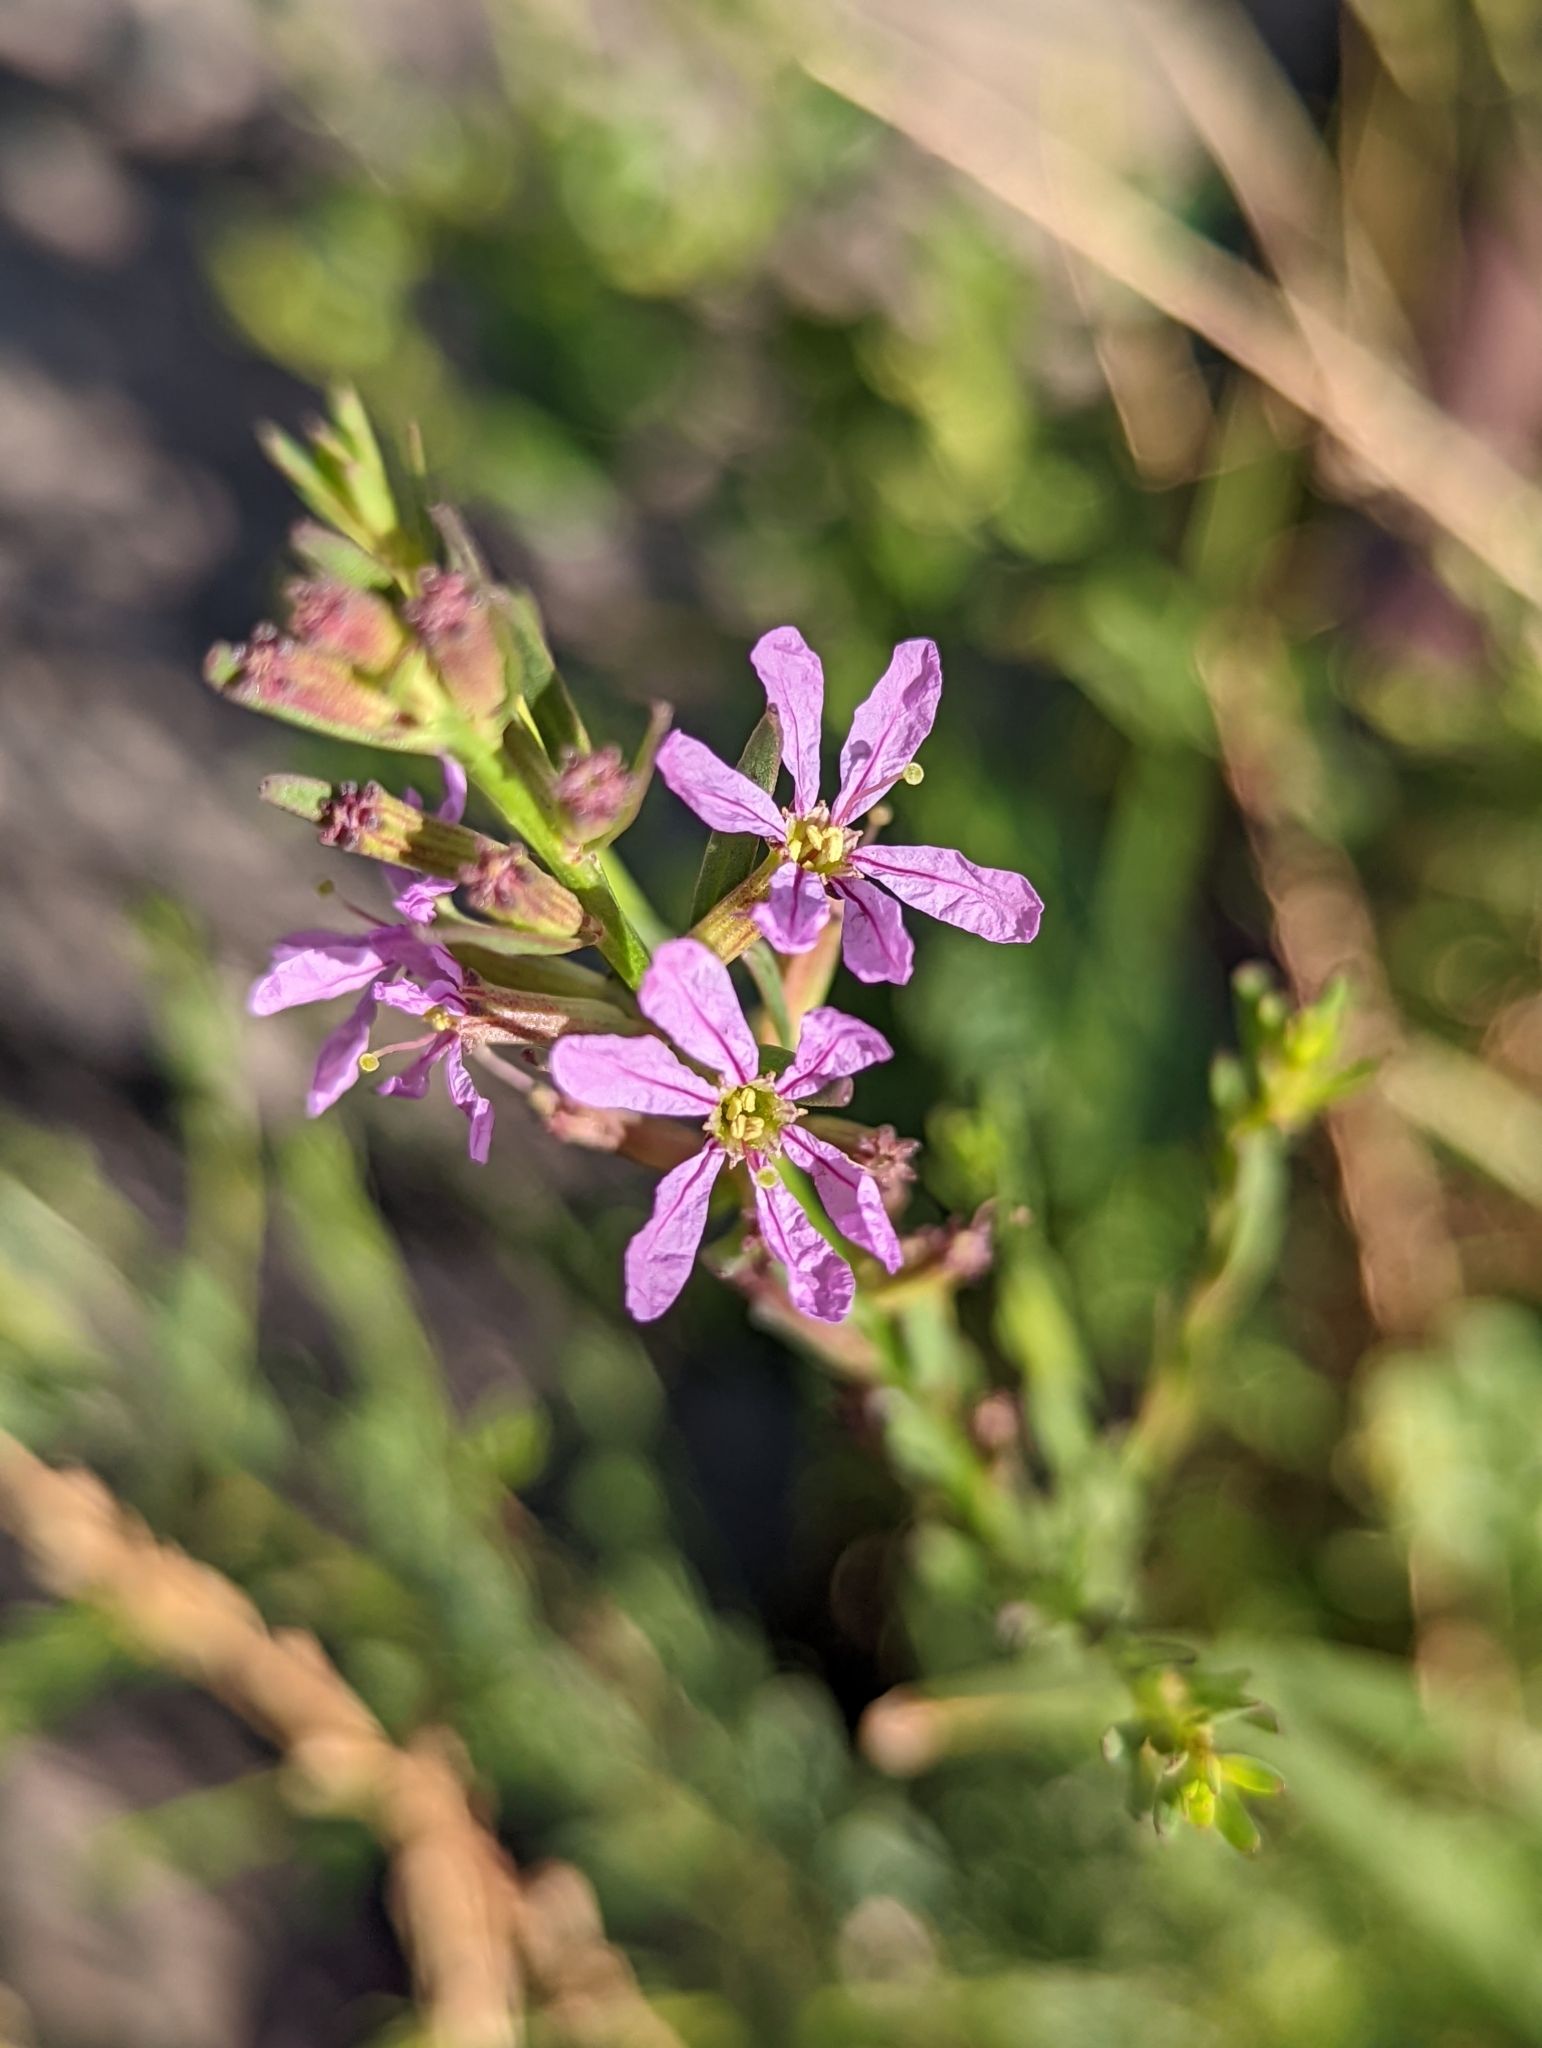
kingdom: Plantae
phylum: Tracheophyta
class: Magnoliopsida
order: Myrtales
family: Lythraceae
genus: Lythrum
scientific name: Lythrum californicum
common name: California loosestrife
